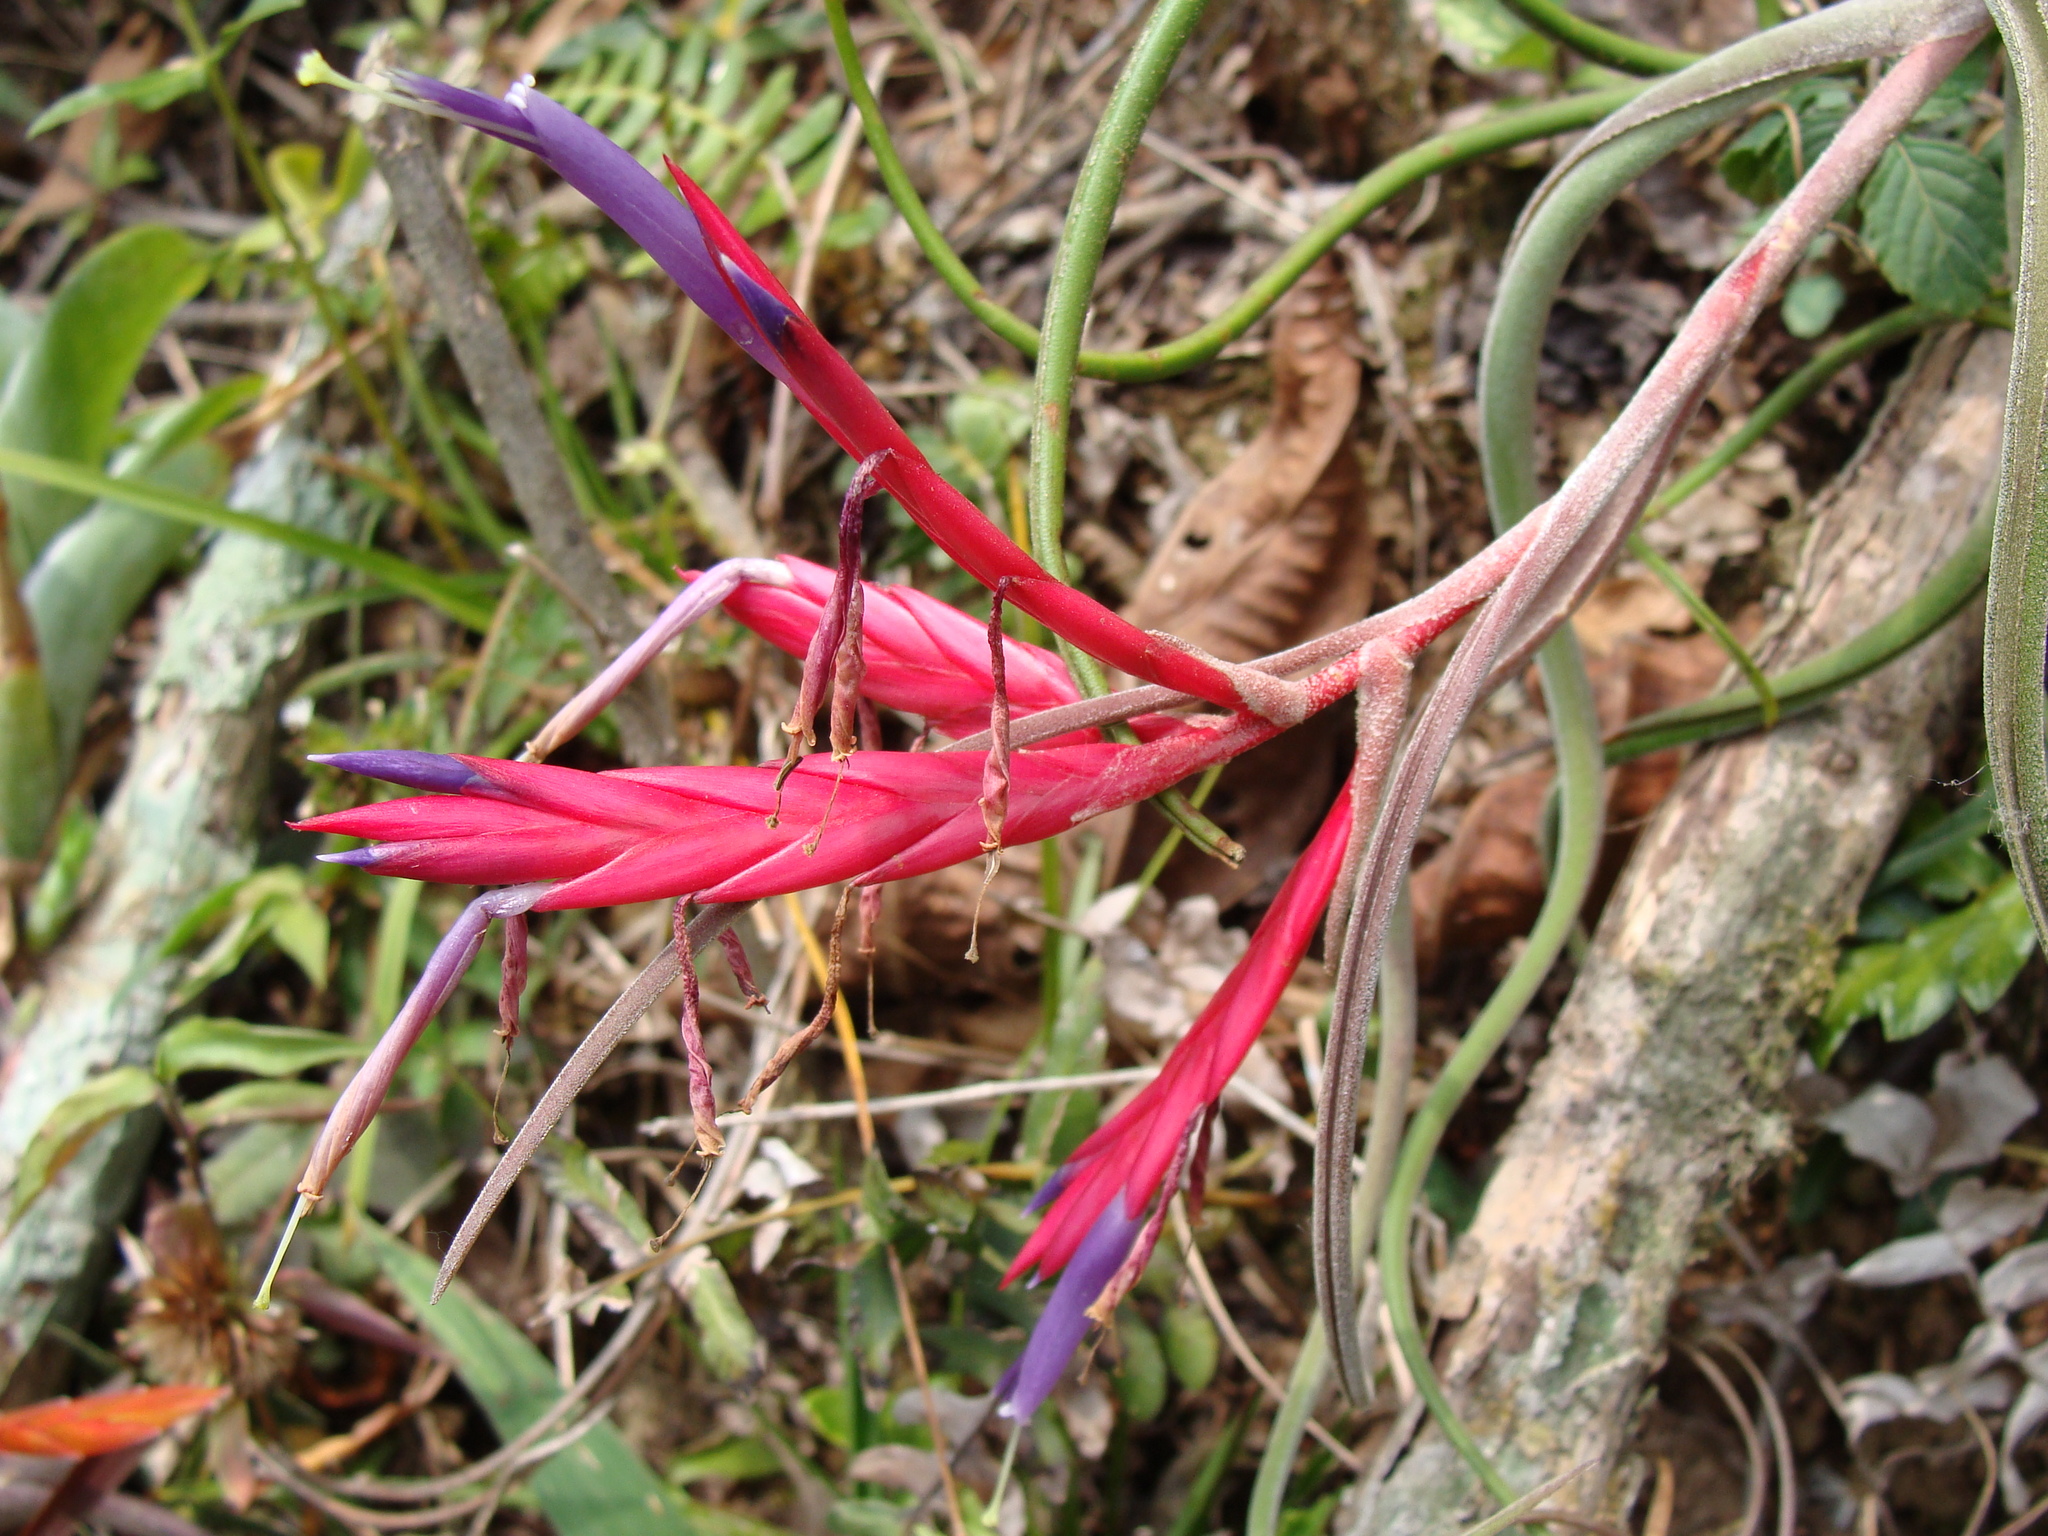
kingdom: Plantae
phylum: Tracheophyta
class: Liliopsida
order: Poales
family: Bromeliaceae
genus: Tillandsia
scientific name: Tillandsia caput-medusae
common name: Octopus plant
